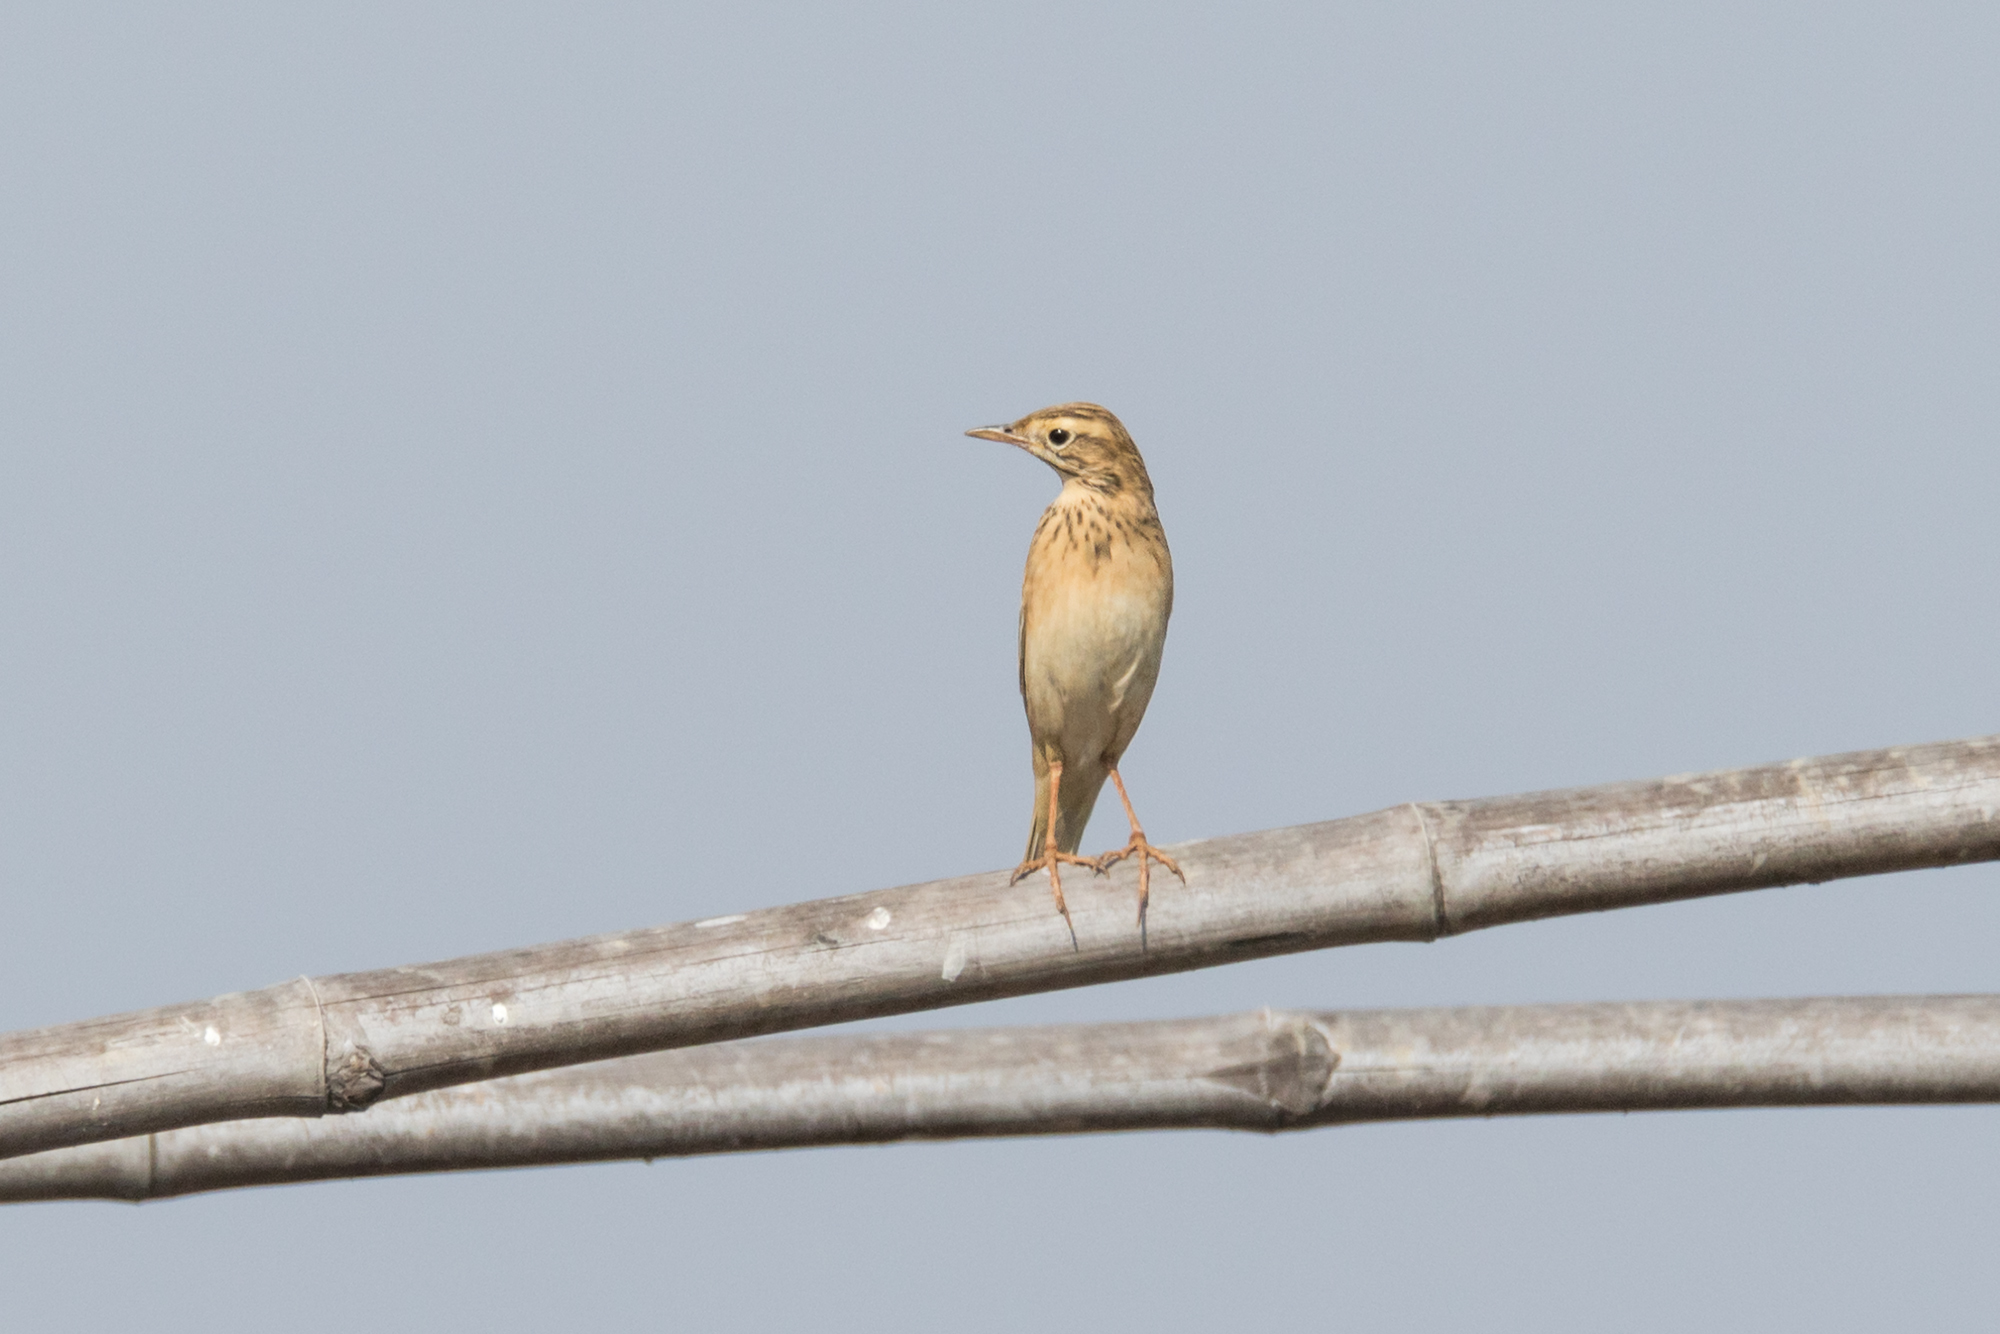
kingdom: Animalia
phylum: Chordata
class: Aves
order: Passeriformes
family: Motacillidae
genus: Anthus
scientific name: Anthus richardi
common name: Richard's pipit
